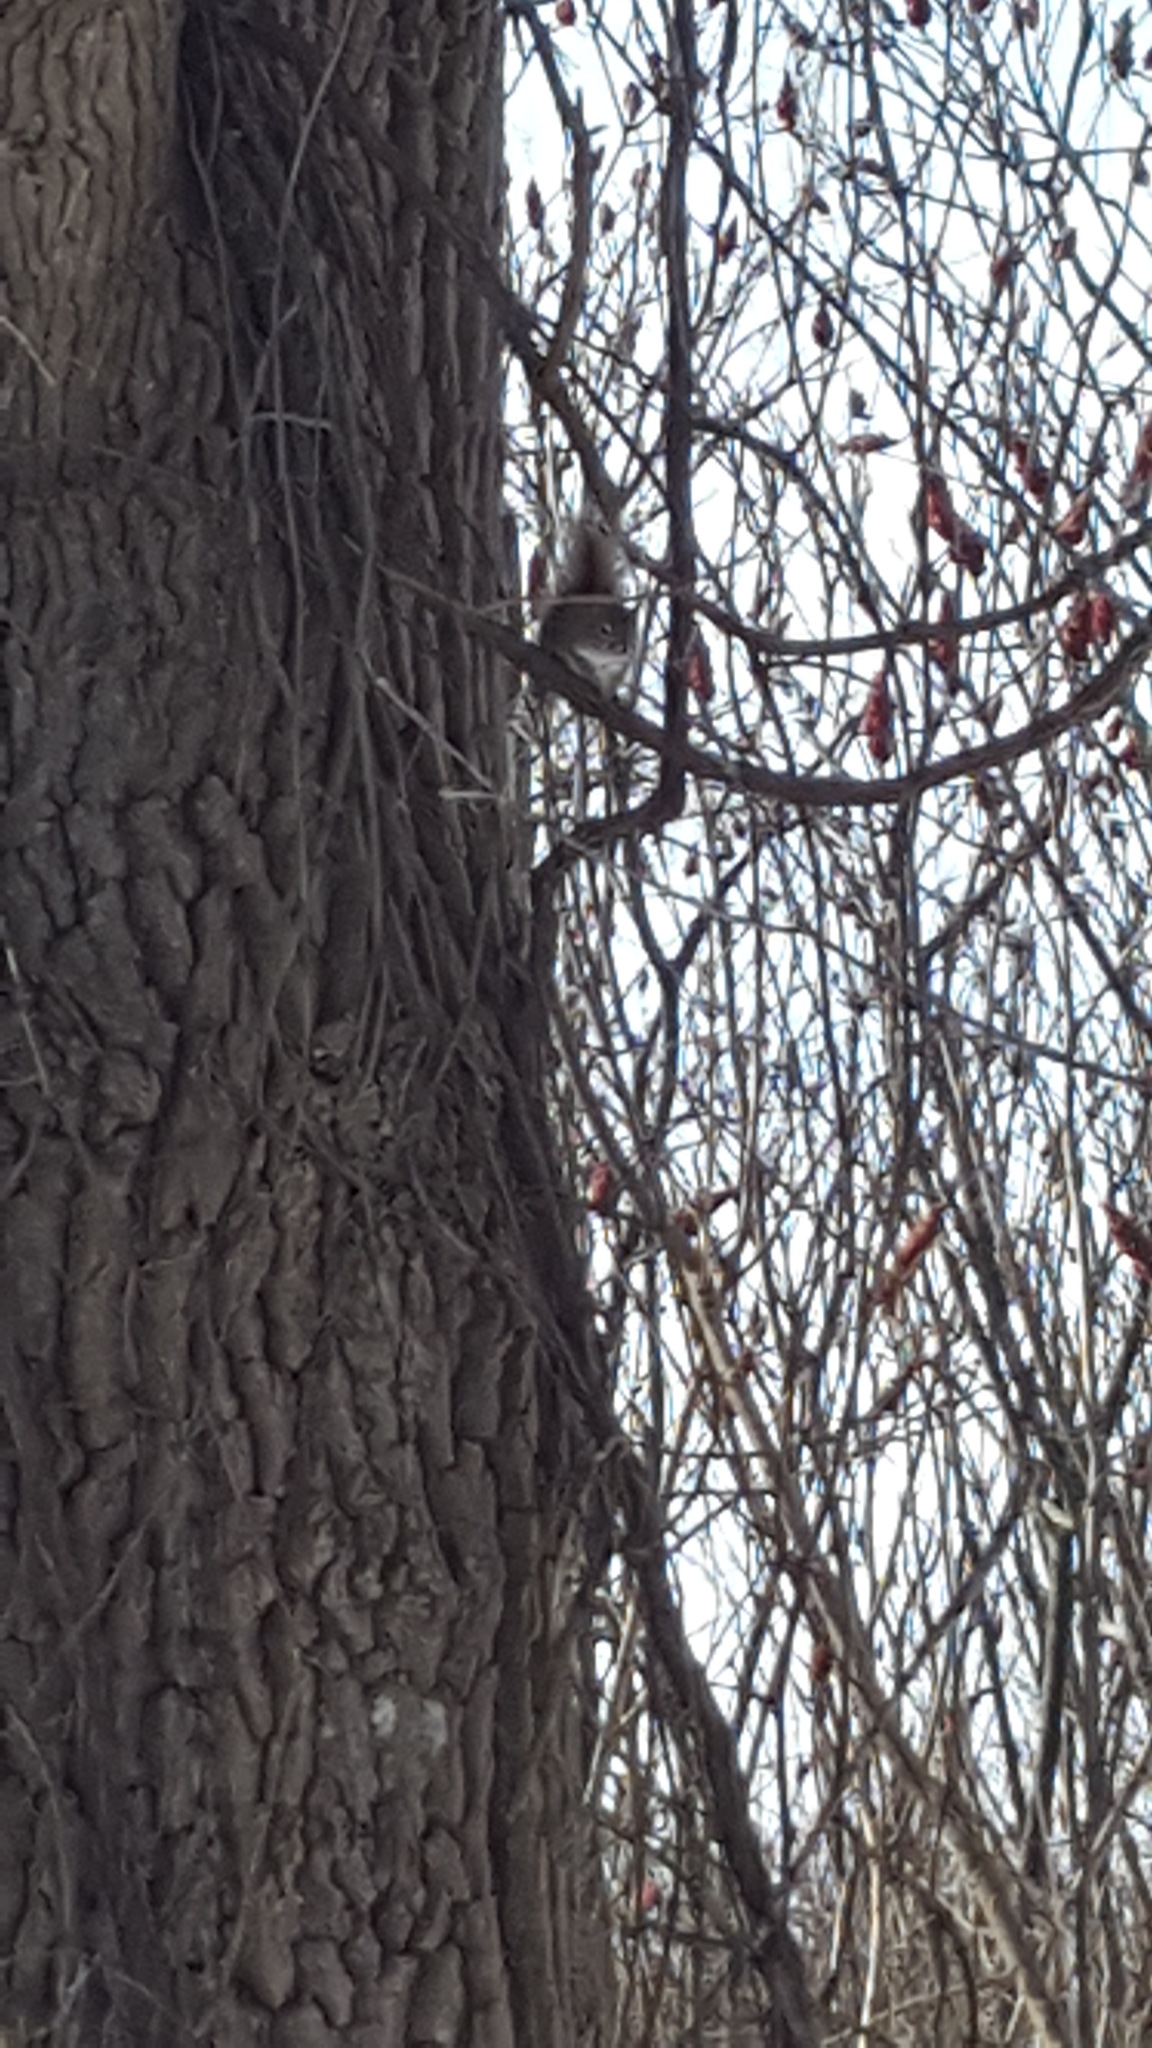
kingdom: Animalia
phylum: Chordata
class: Mammalia
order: Rodentia
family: Sciuridae
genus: Tamiasciurus
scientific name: Tamiasciurus hudsonicus
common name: Red squirrel
